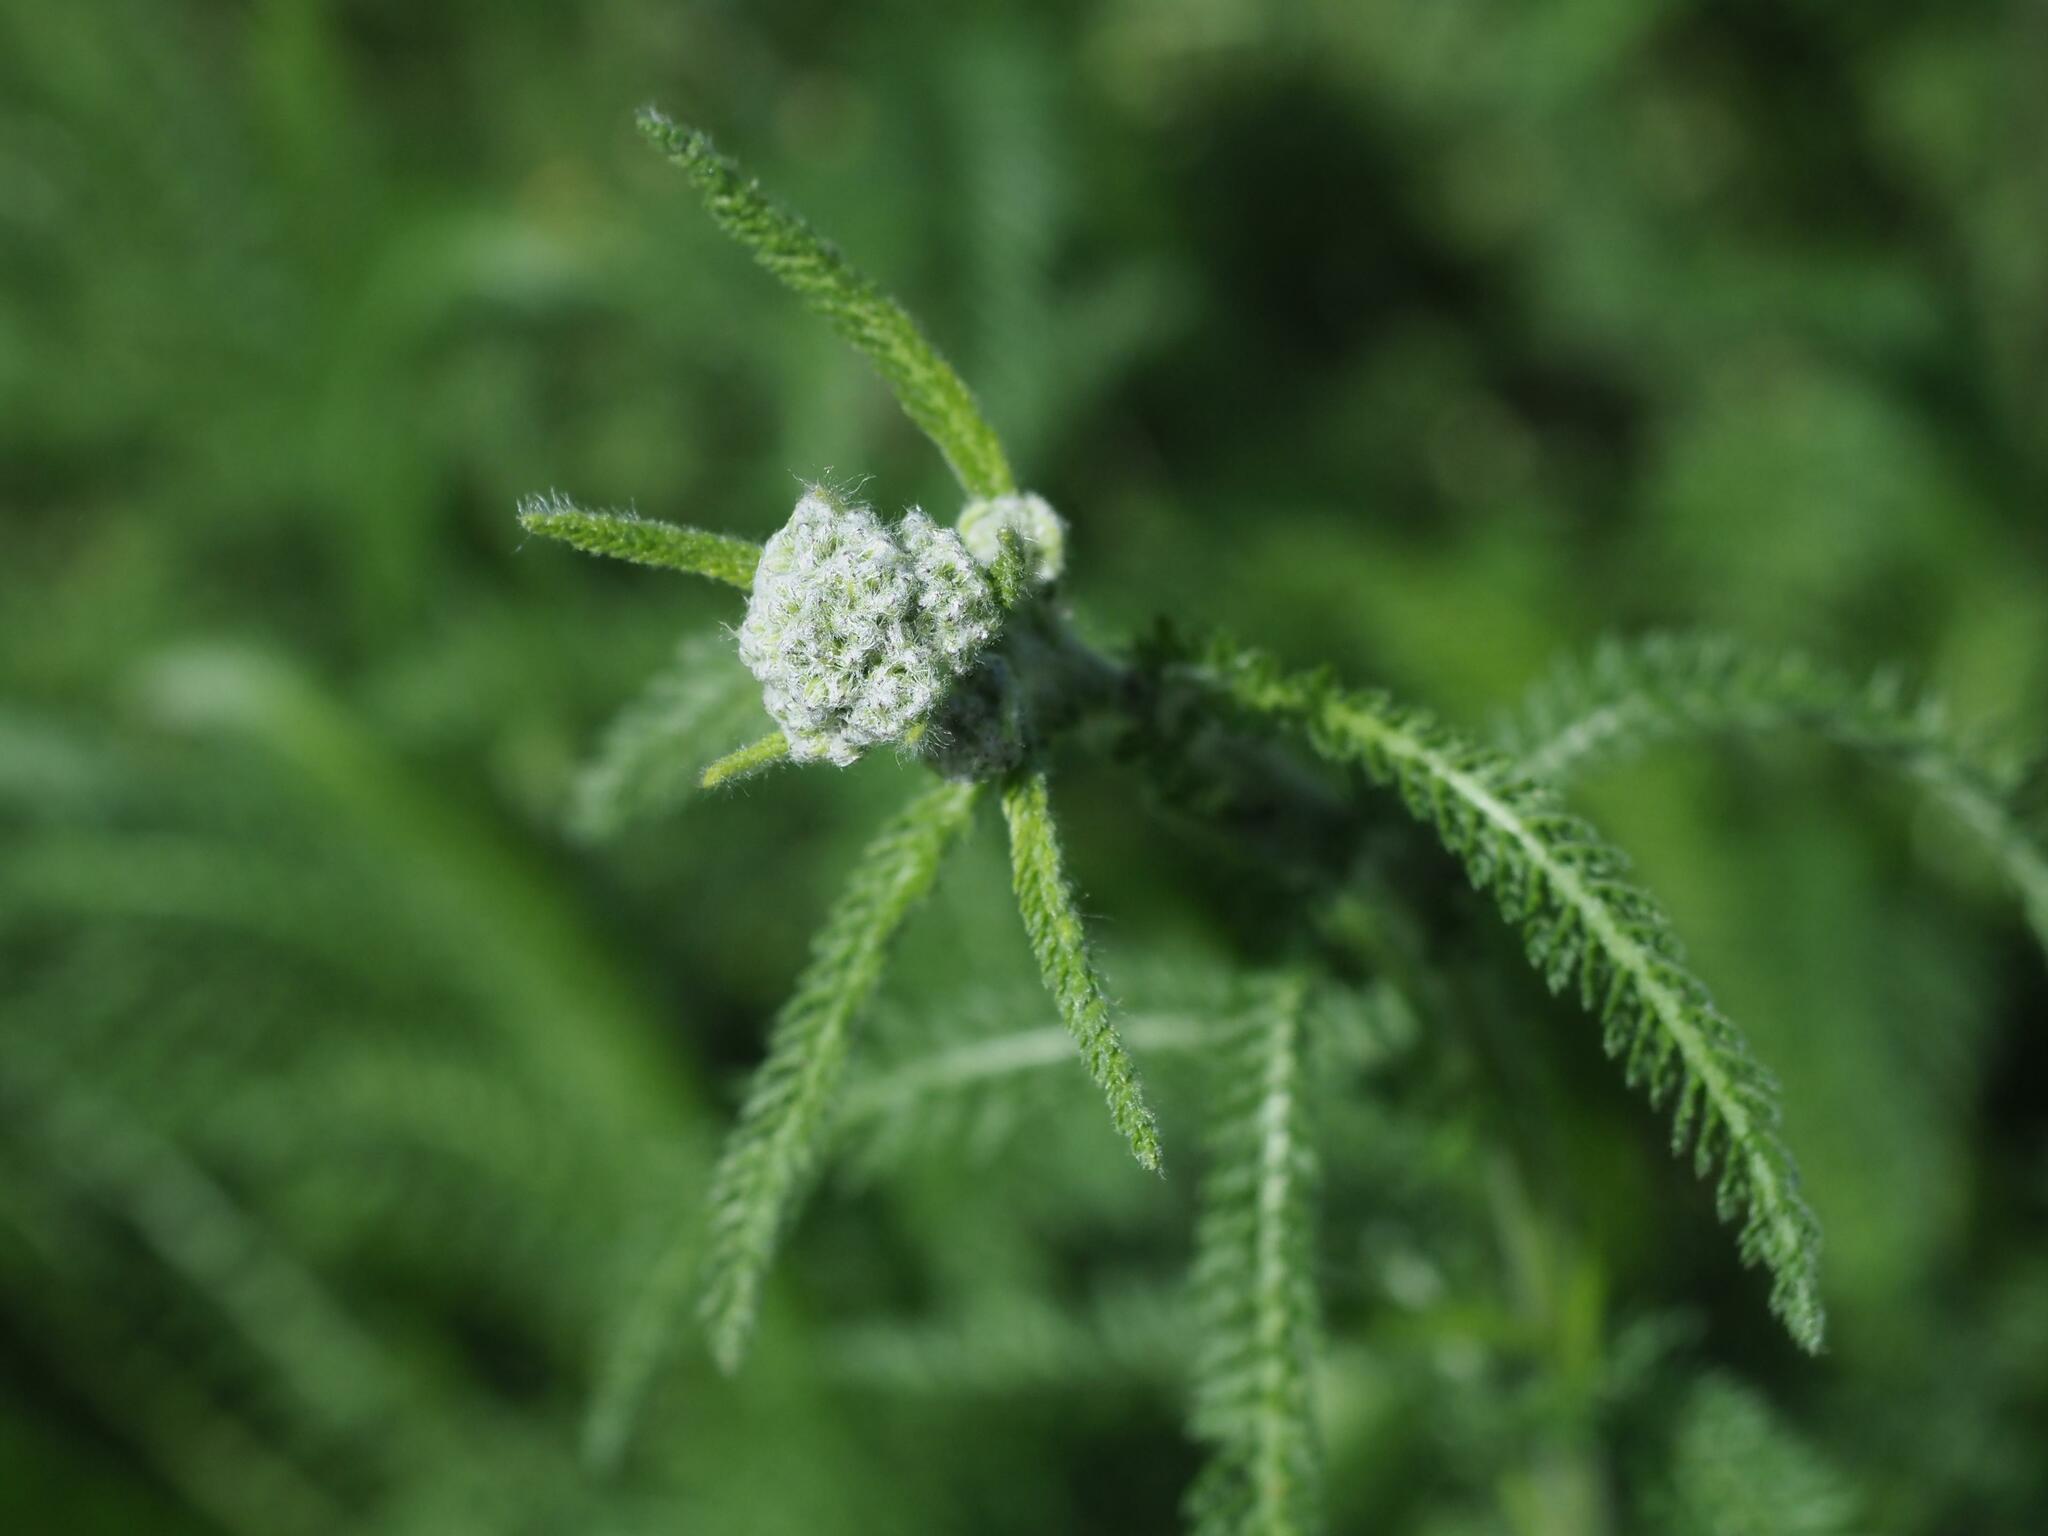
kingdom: Plantae
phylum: Tracheophyta
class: Magnoliopsida
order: Asterales
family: Asteraceae
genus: Achillea
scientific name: Achillea millefolium
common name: Yarrow
